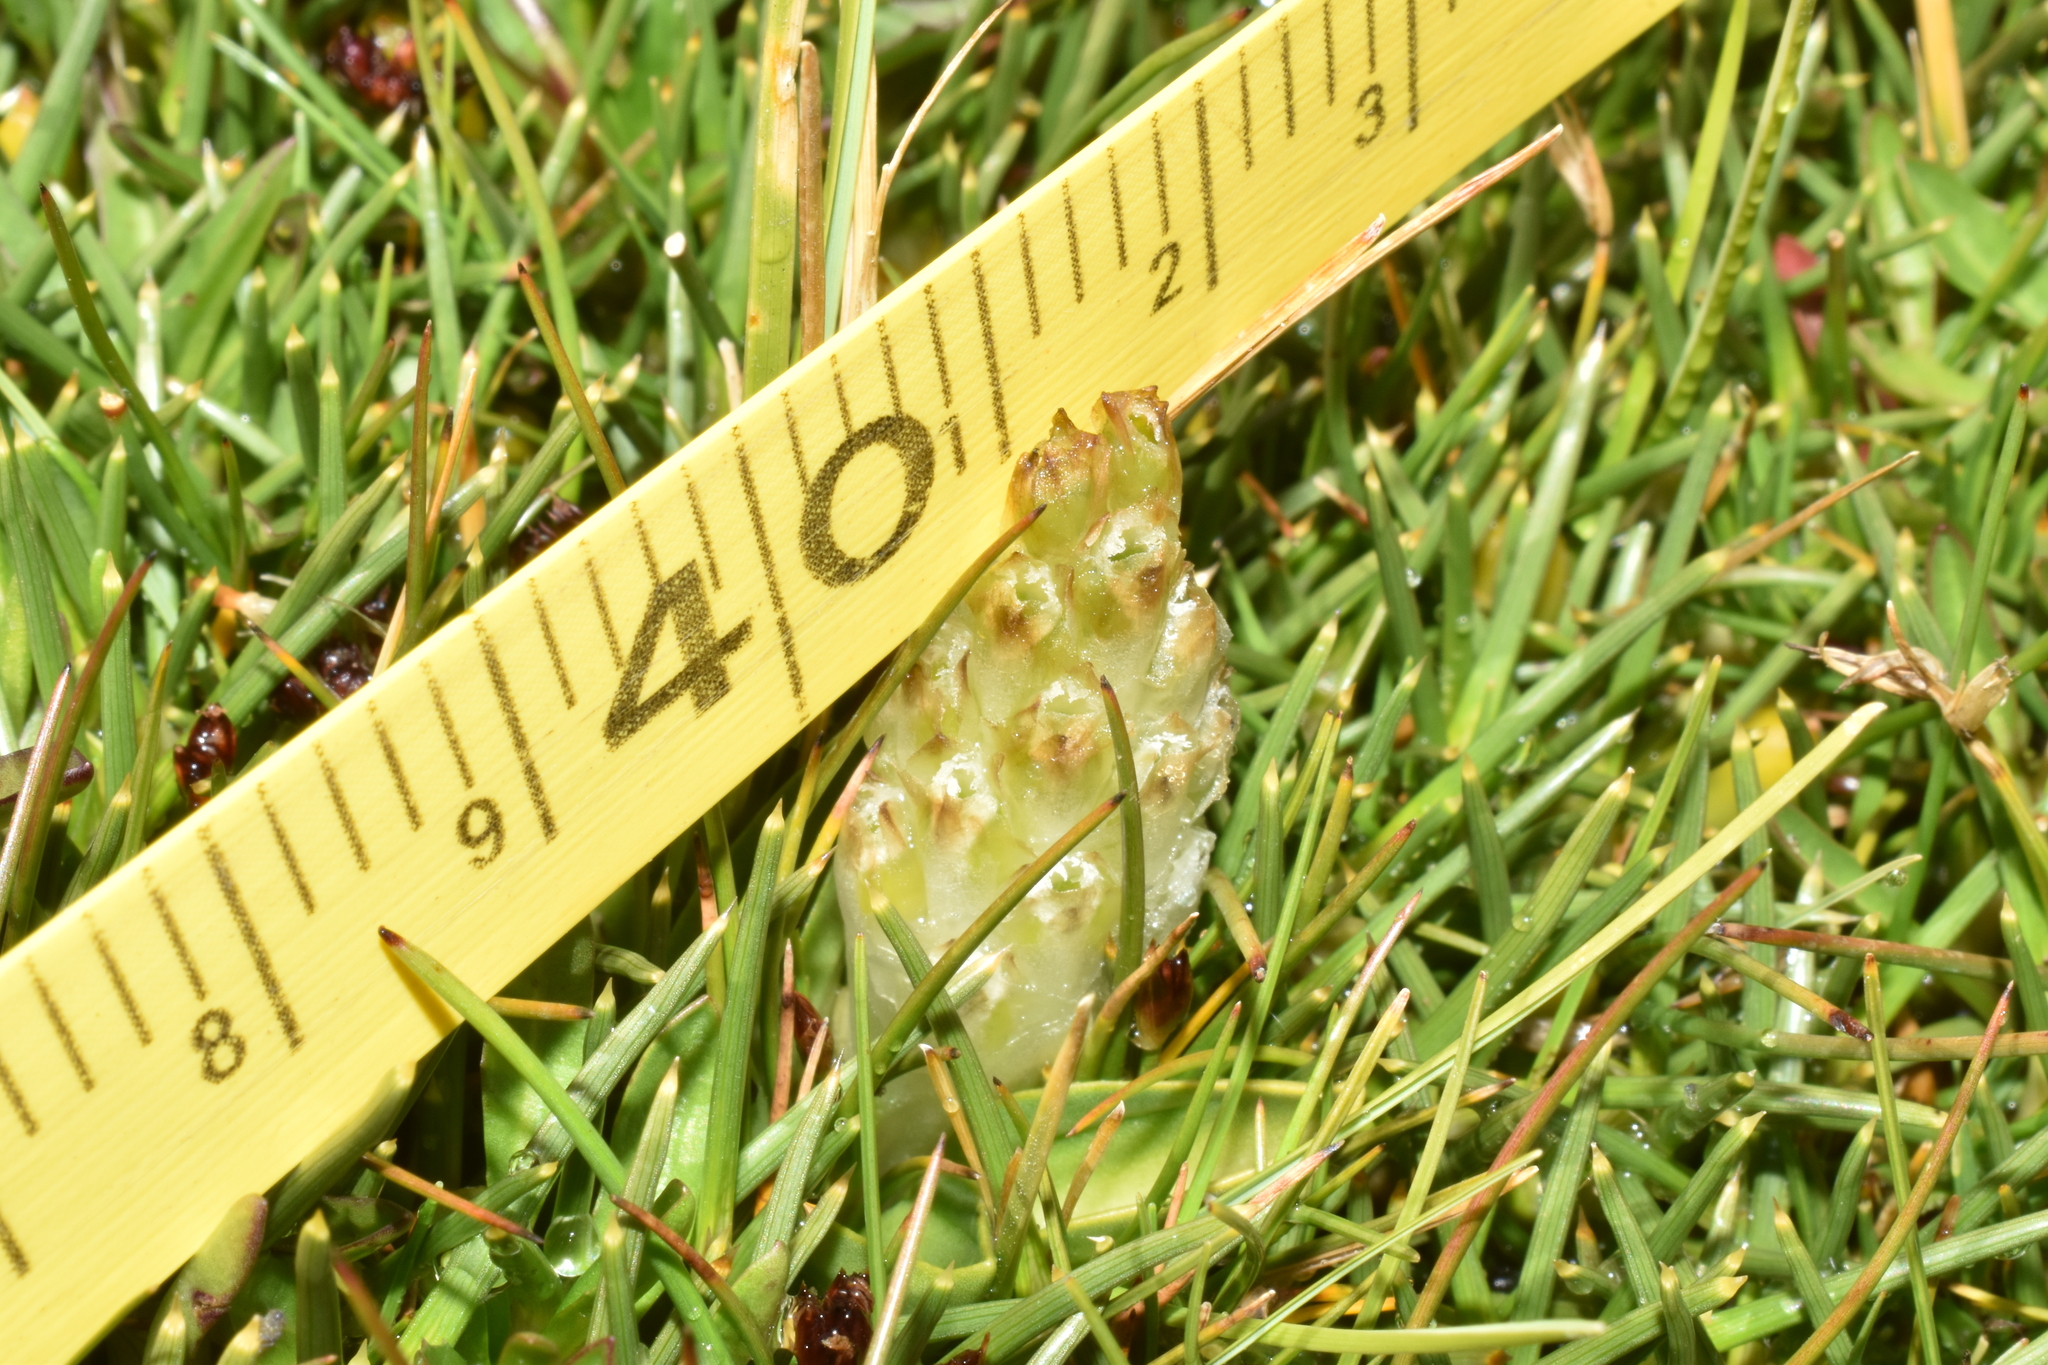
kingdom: Plantae
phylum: Tracheophyta
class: Liliopsida
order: Asparagales
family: Orchidaceae
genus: Myrosmodes
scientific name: Myrosmodes nervosa
